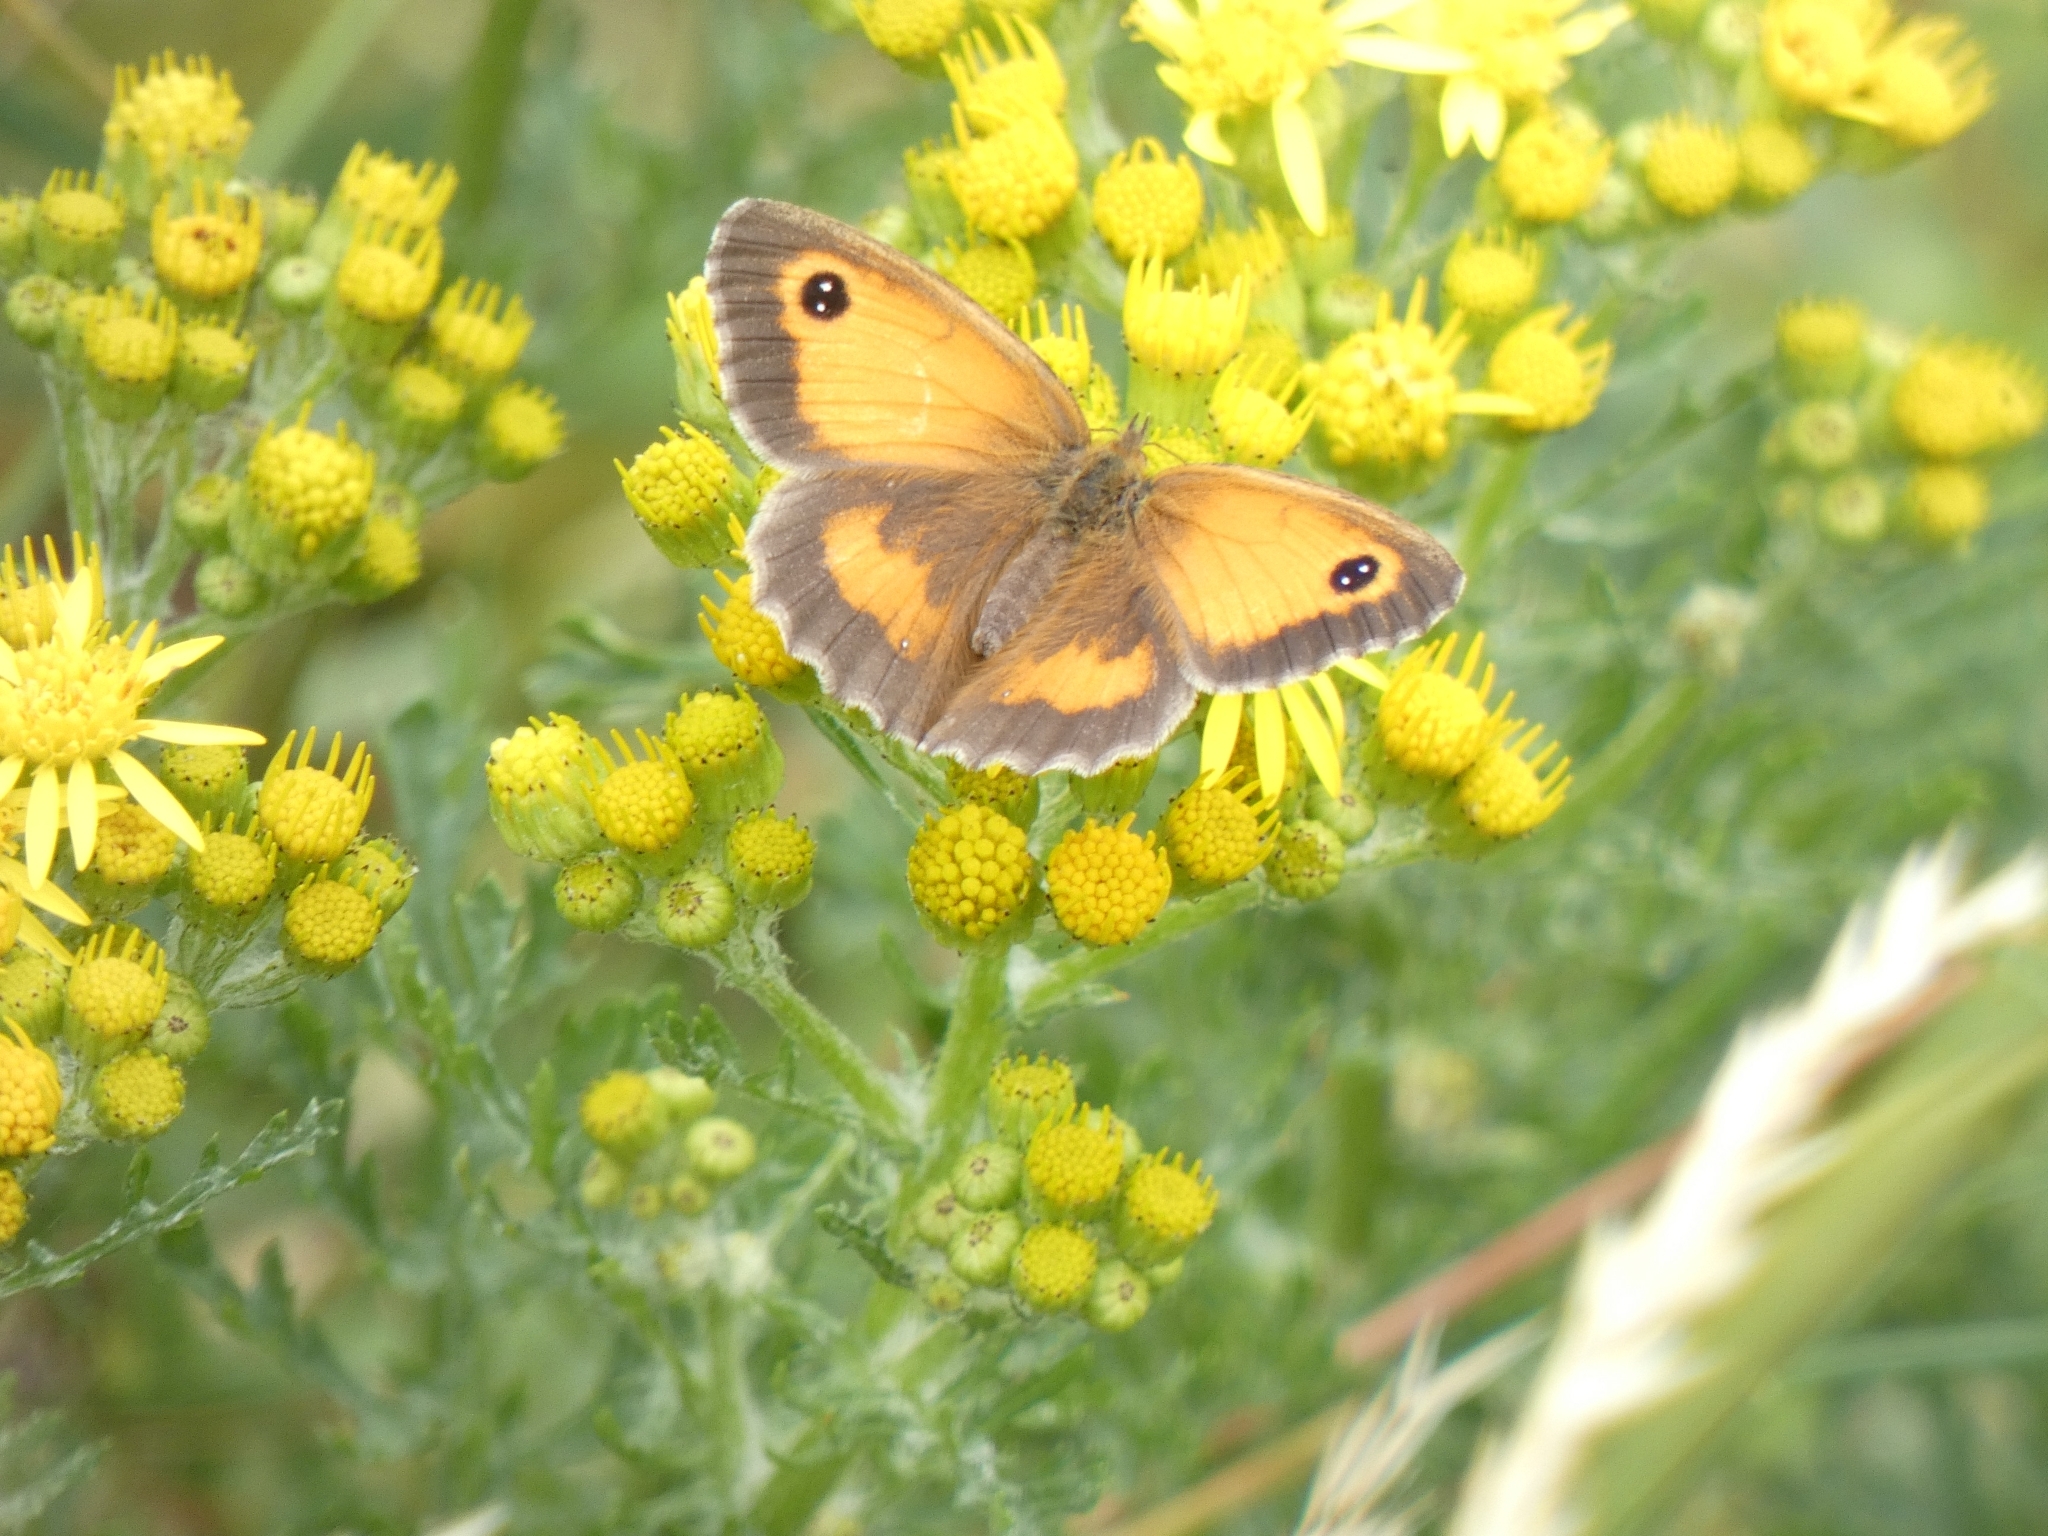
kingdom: Animalia
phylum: Arthropoda
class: Insecta
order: Lepidoptera
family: Nymphalidae
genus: Pyronia
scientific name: Pyronia tithonus
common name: Gatekeeper
